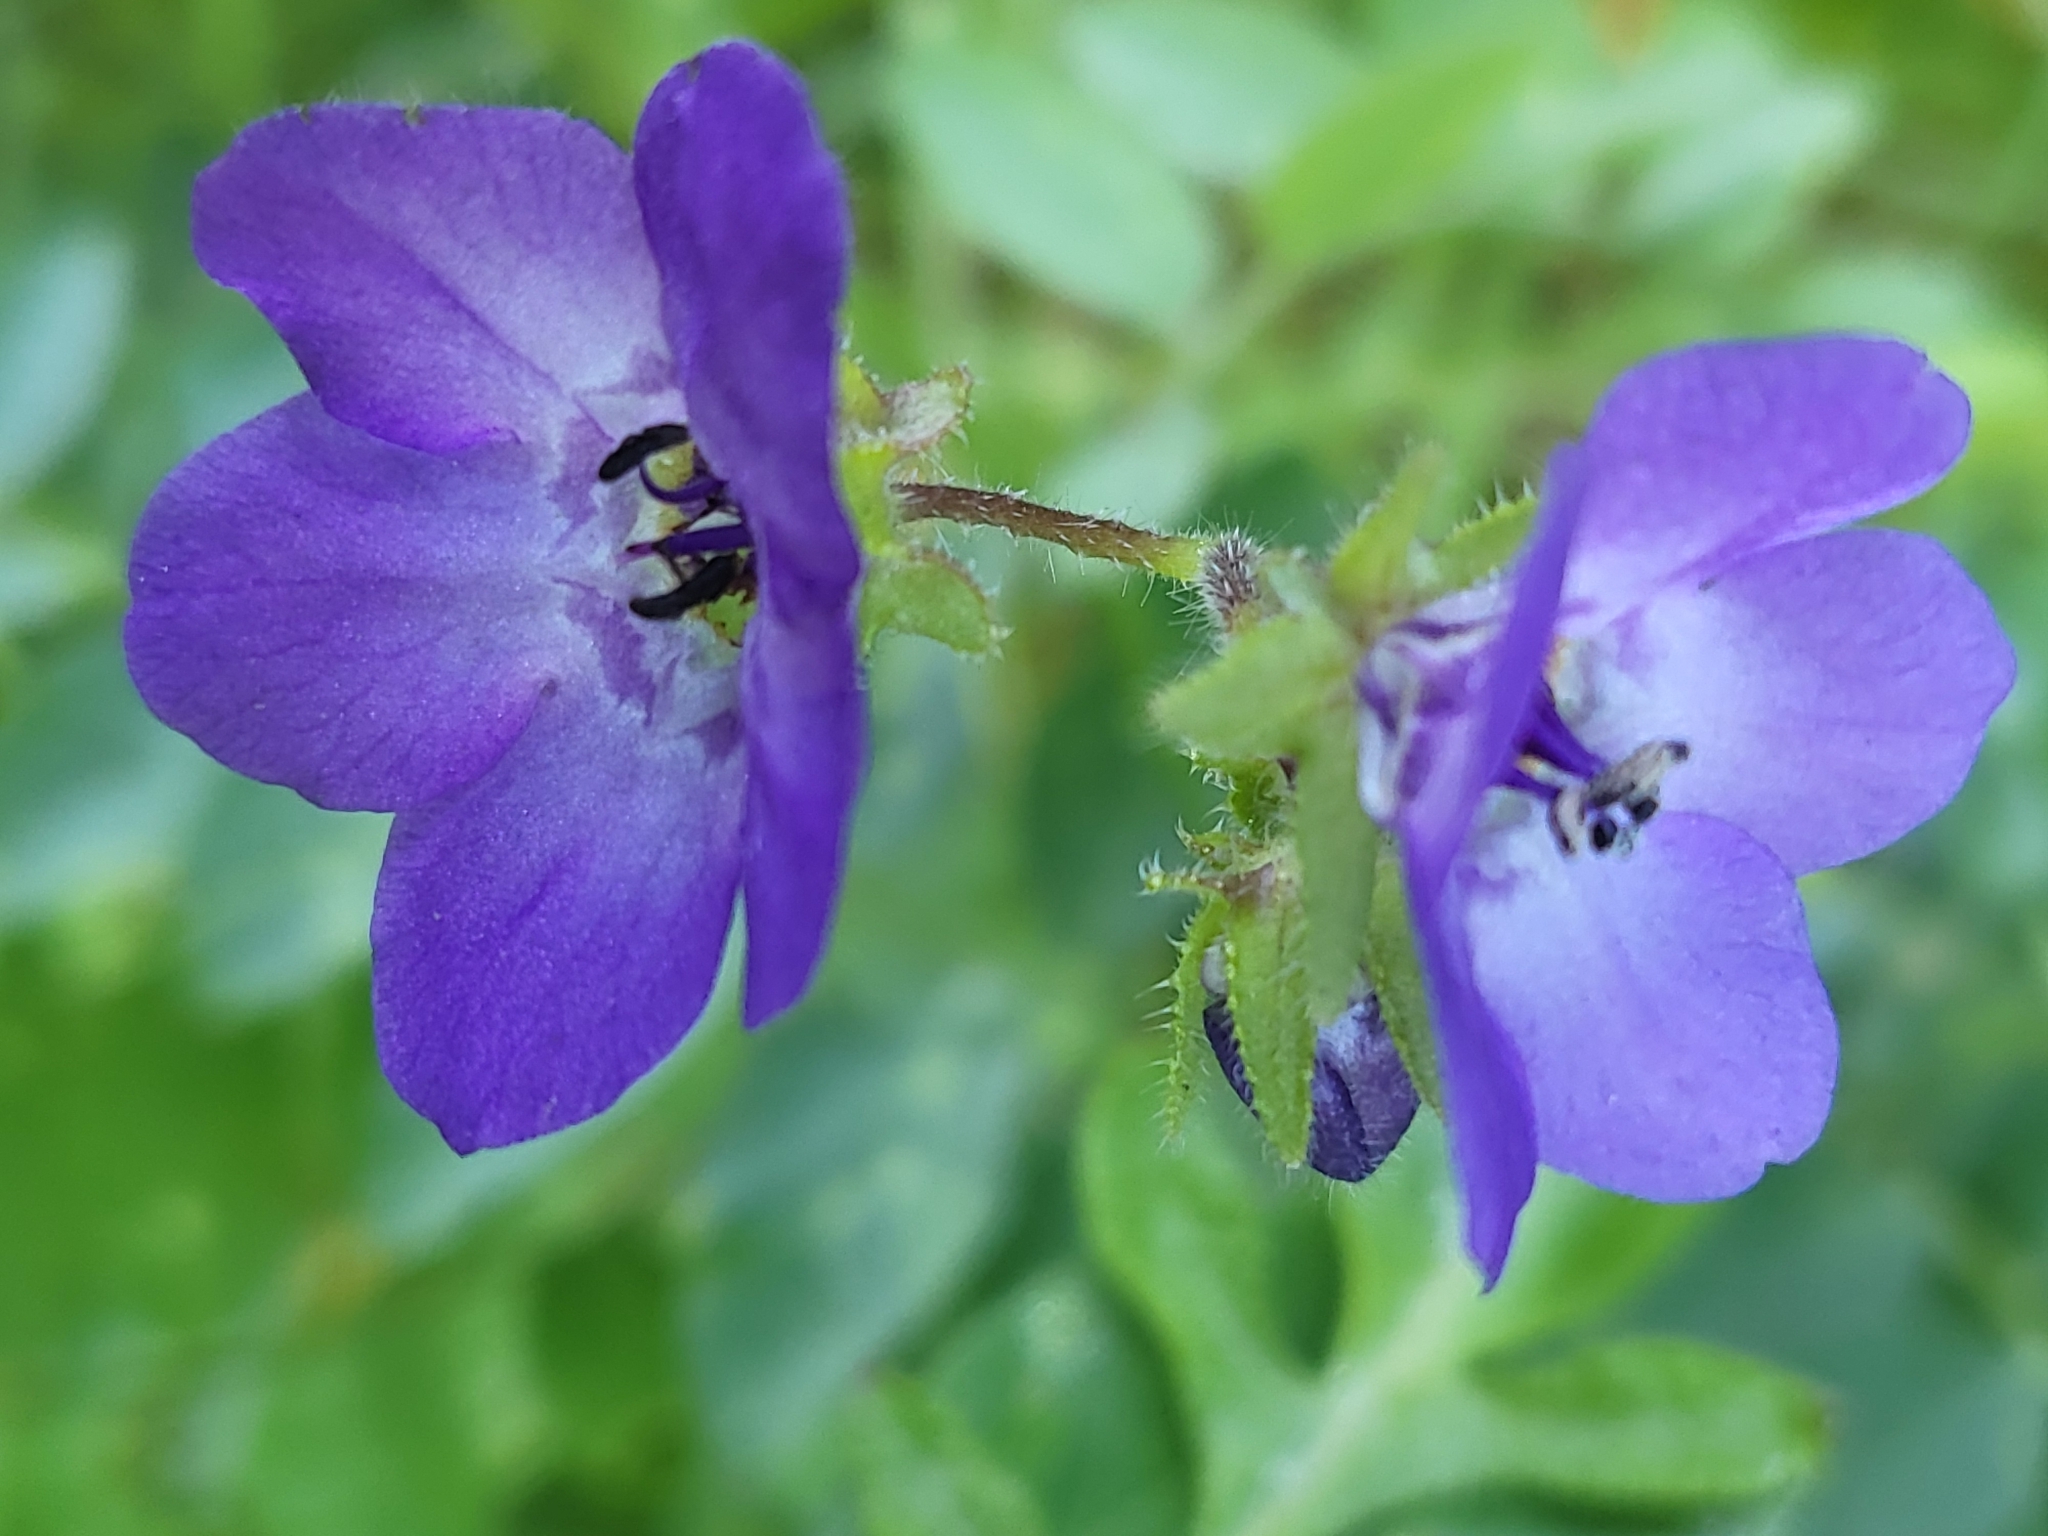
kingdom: Plantae
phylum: Tracheophyta
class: Magnoliopsida
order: Boraginales
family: Hydrophyllaceae
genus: Pholistoma
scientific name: Pholistoma auritum
